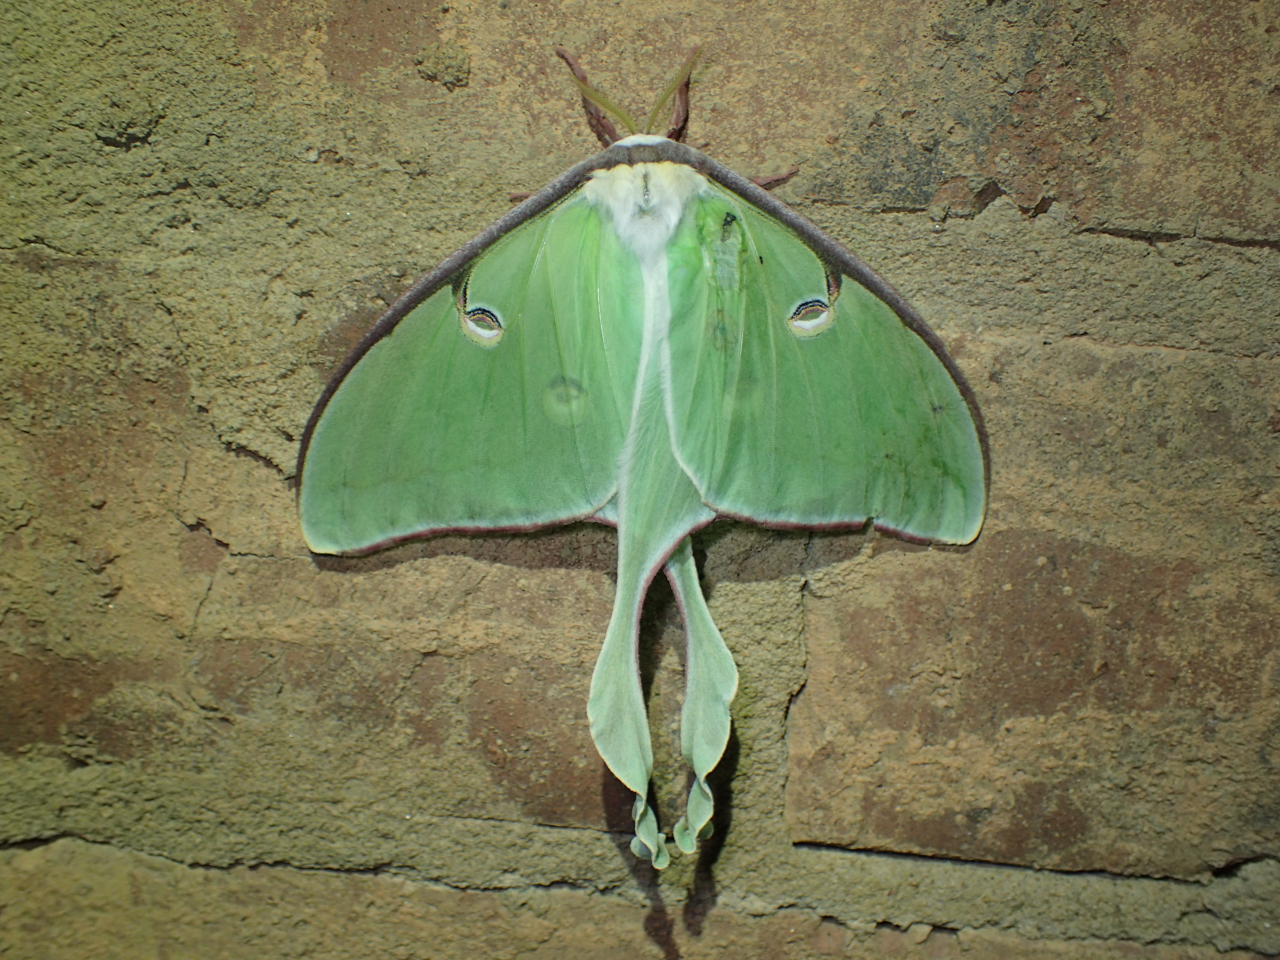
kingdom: Animalia
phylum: Arthropoda
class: Insecta
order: Lepidoptera
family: Saturniidae
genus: Actias
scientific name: Actias luna
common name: Luna moth
